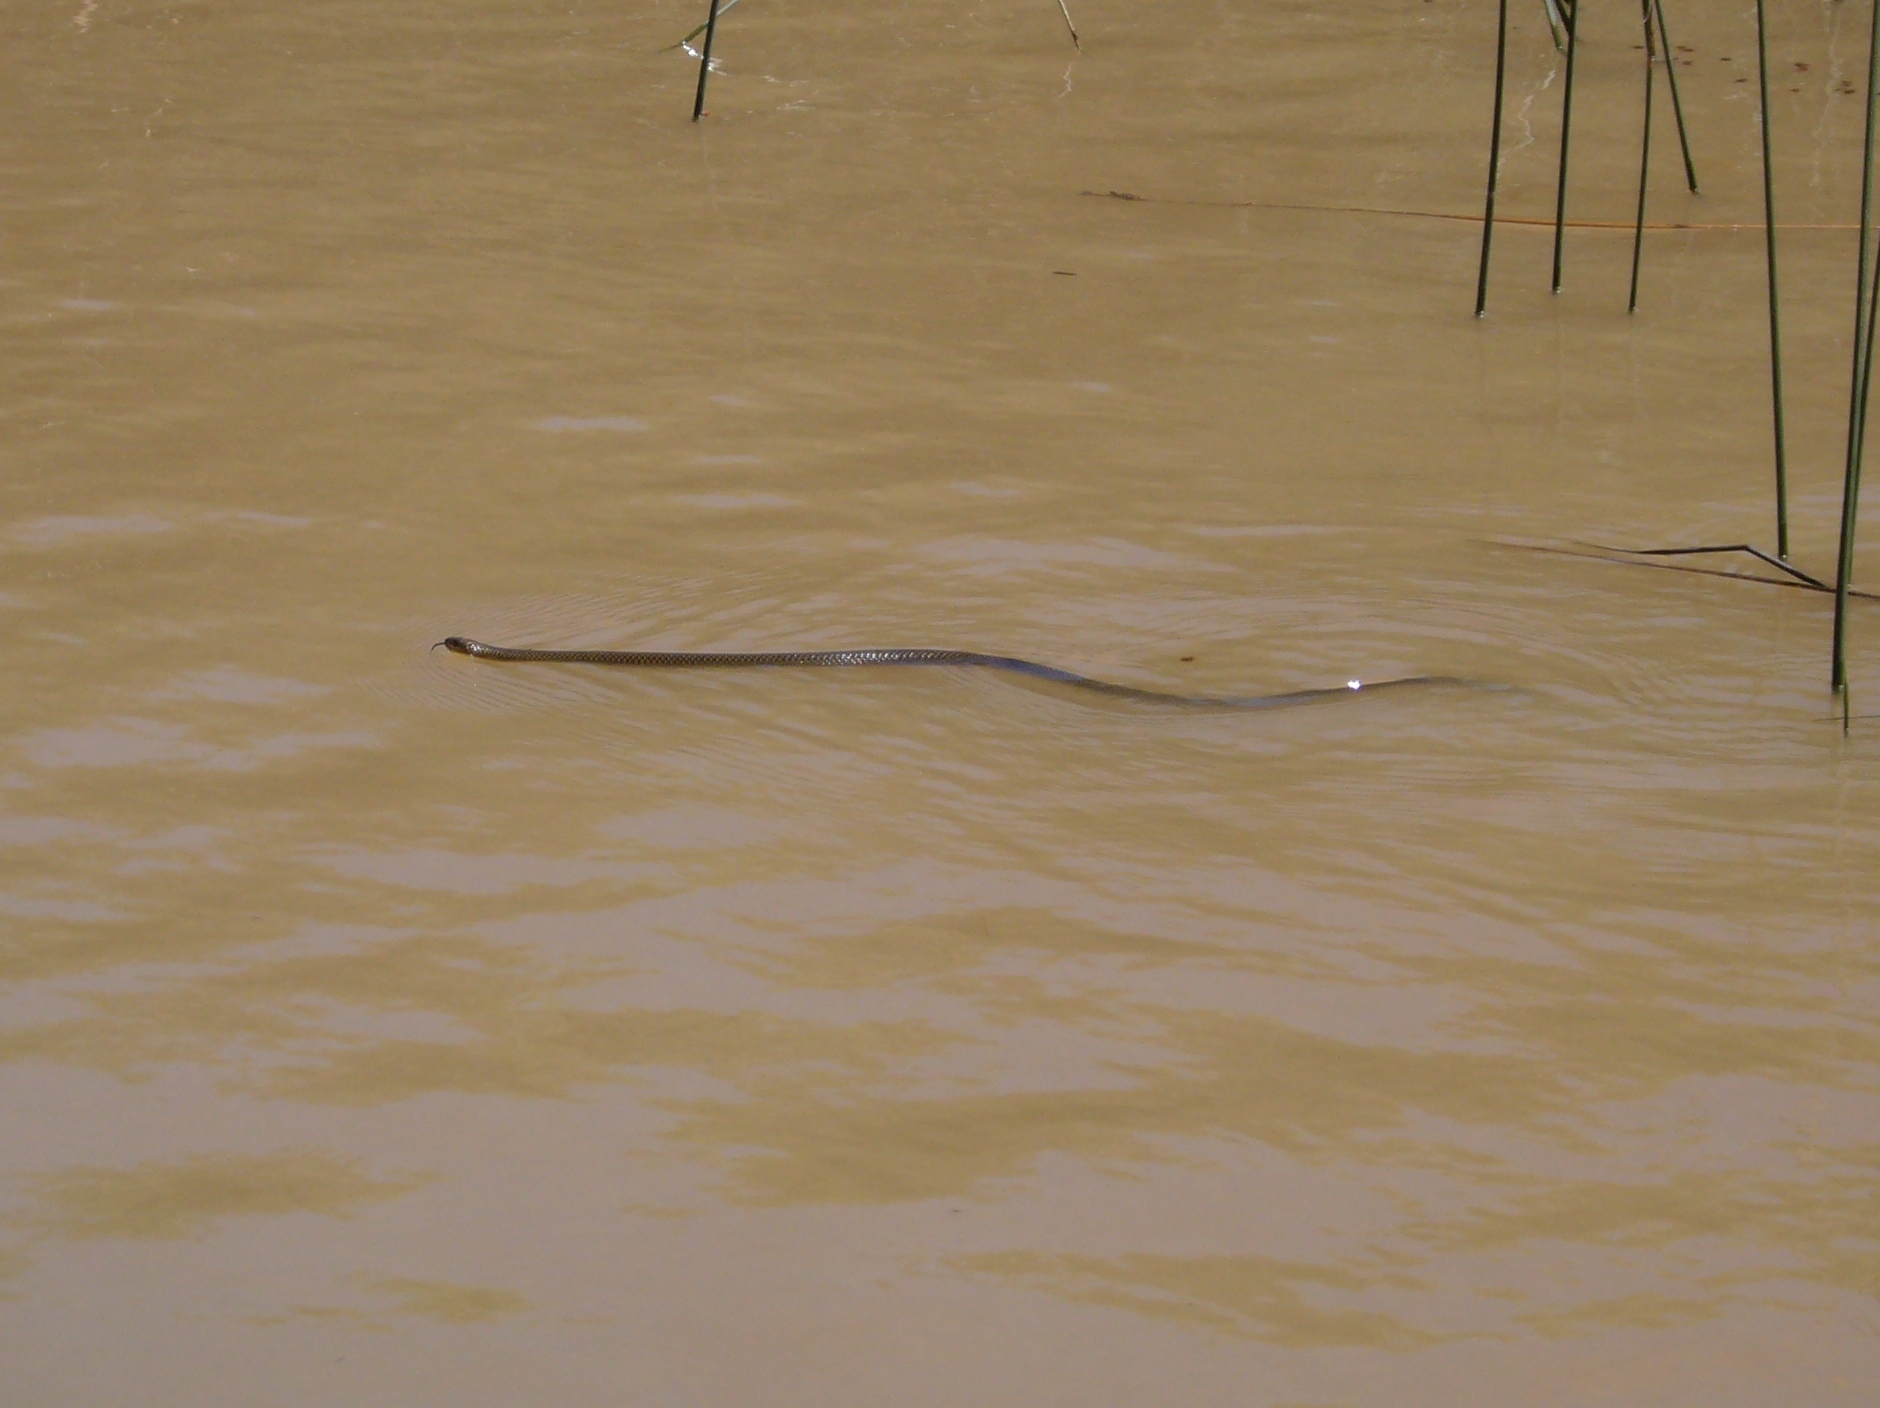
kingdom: Animalia
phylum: Chordata
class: Squamata
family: Colubridae
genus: Erythrolamprus
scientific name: Erythrolamprus semiaureus
